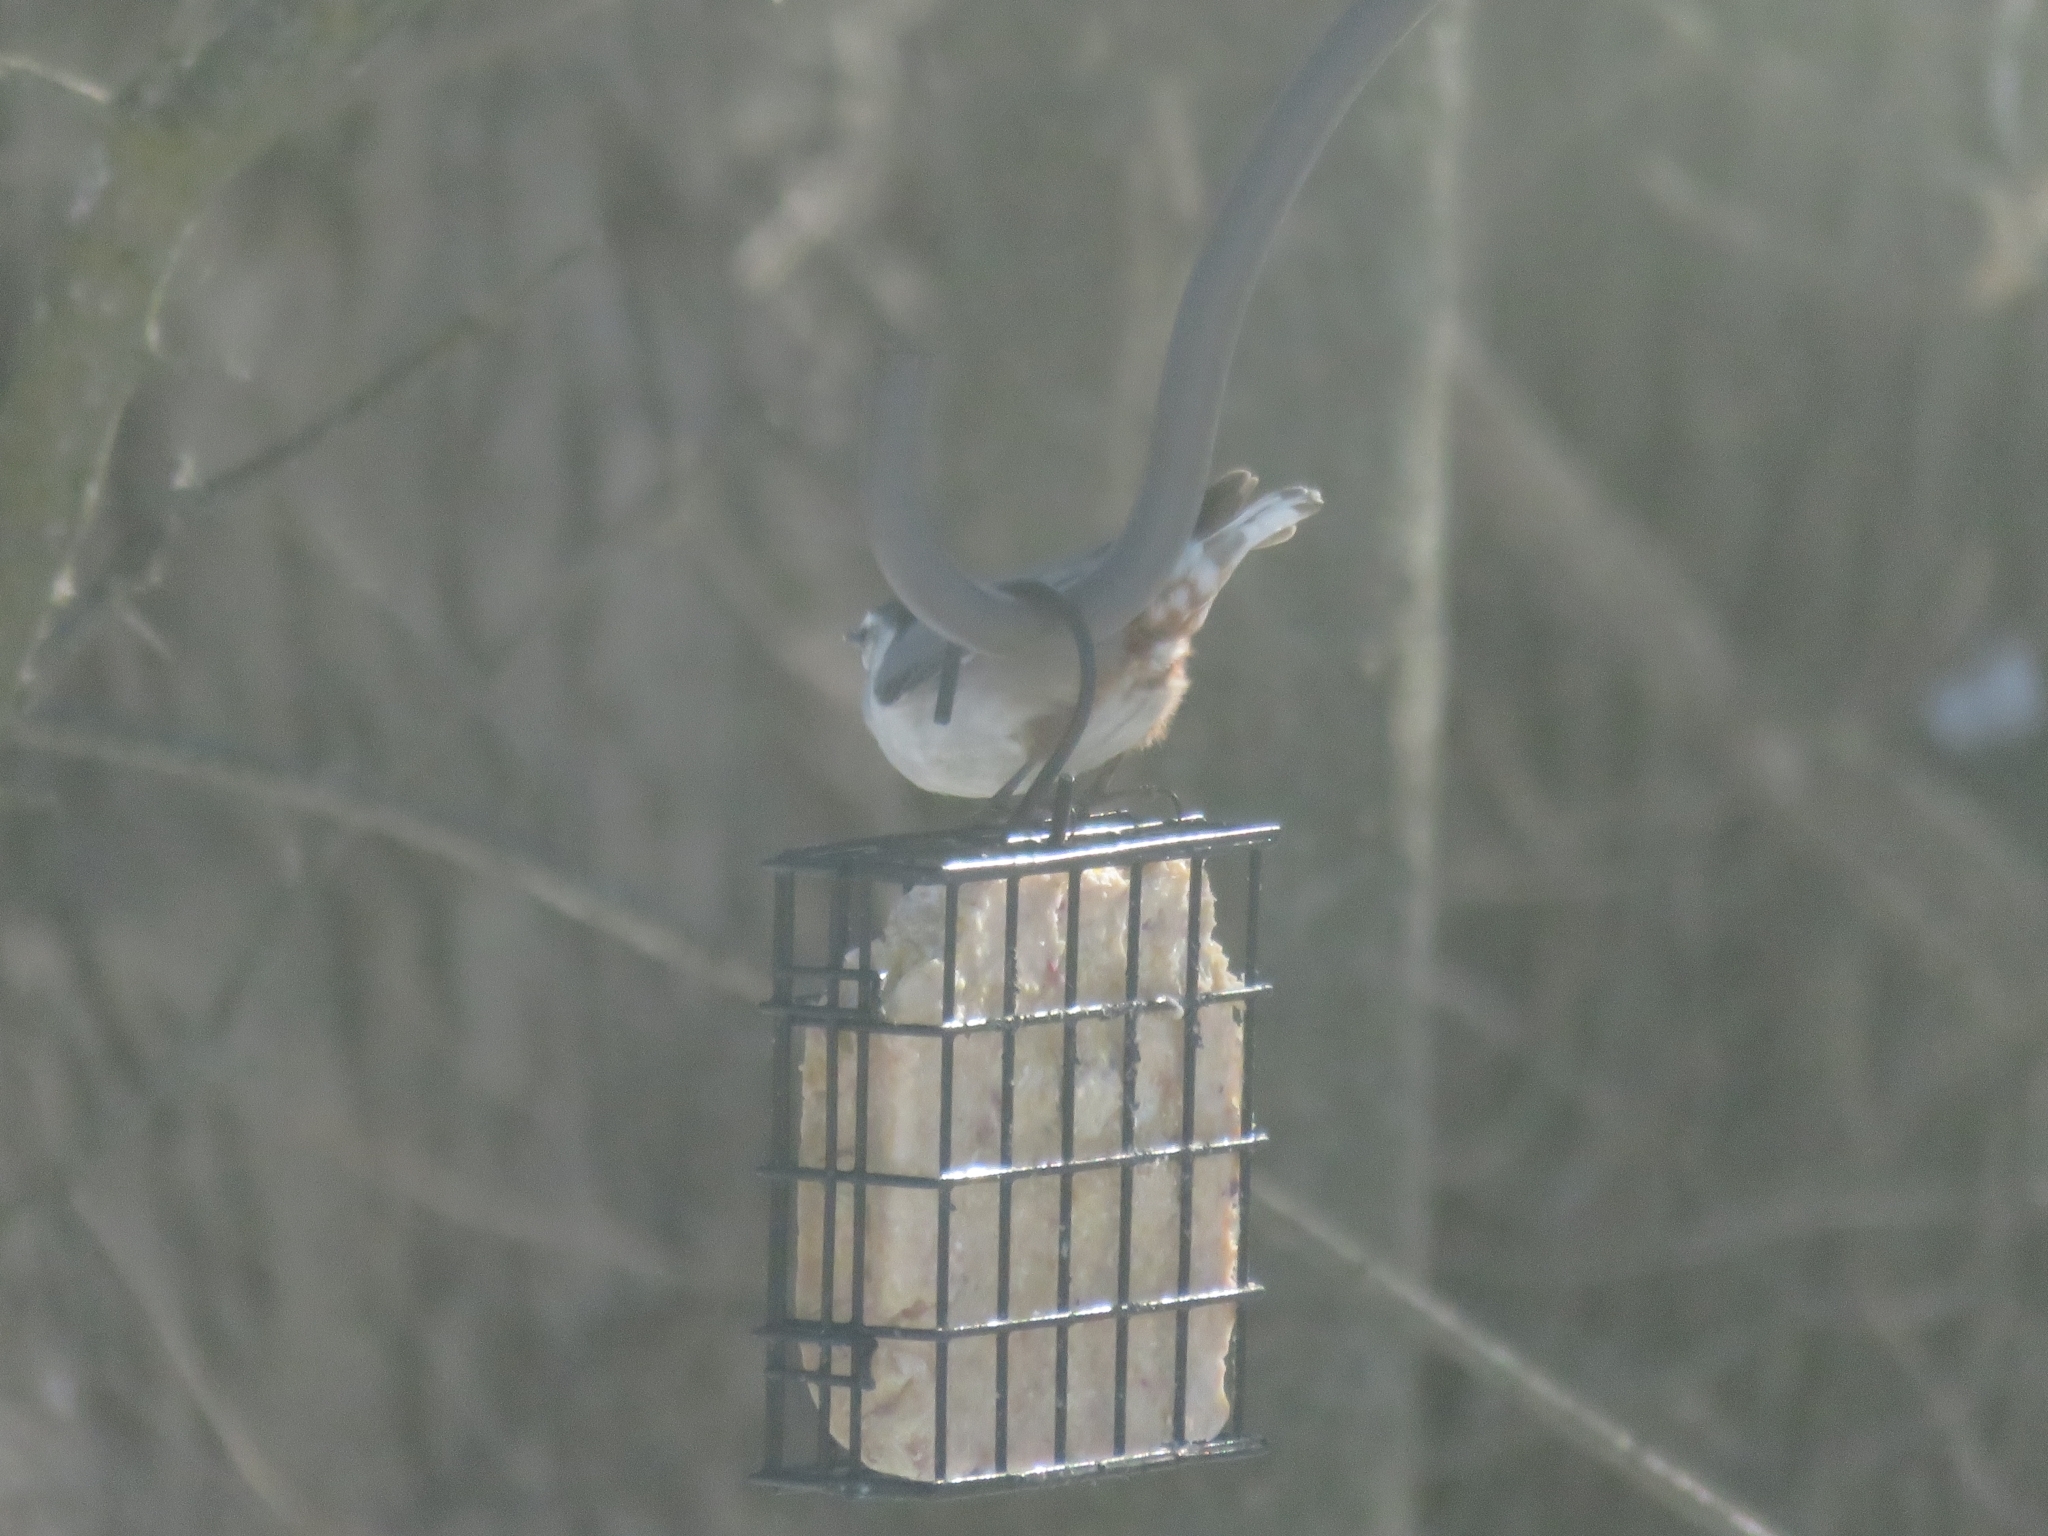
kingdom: Animalia
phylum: Chordata
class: Aves
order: Passeriformes
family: Sittidae
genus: Sitta
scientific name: Sitta carolinensis
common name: White-breasted nuthatch
